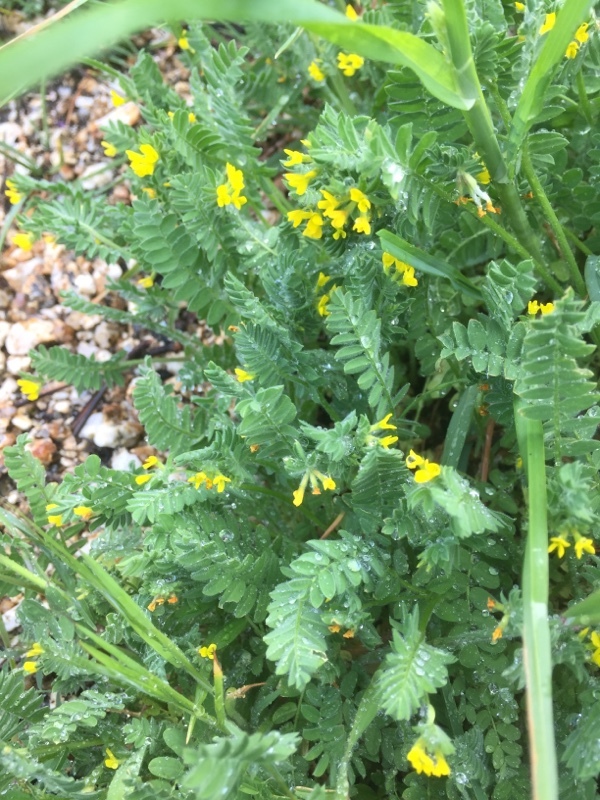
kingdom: Plantae
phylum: Tracheophyta
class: Magnoliopsida
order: Fabales
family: Fabaceae
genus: Ornithopus
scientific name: Ornithopus compressus
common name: Yellow serradella
